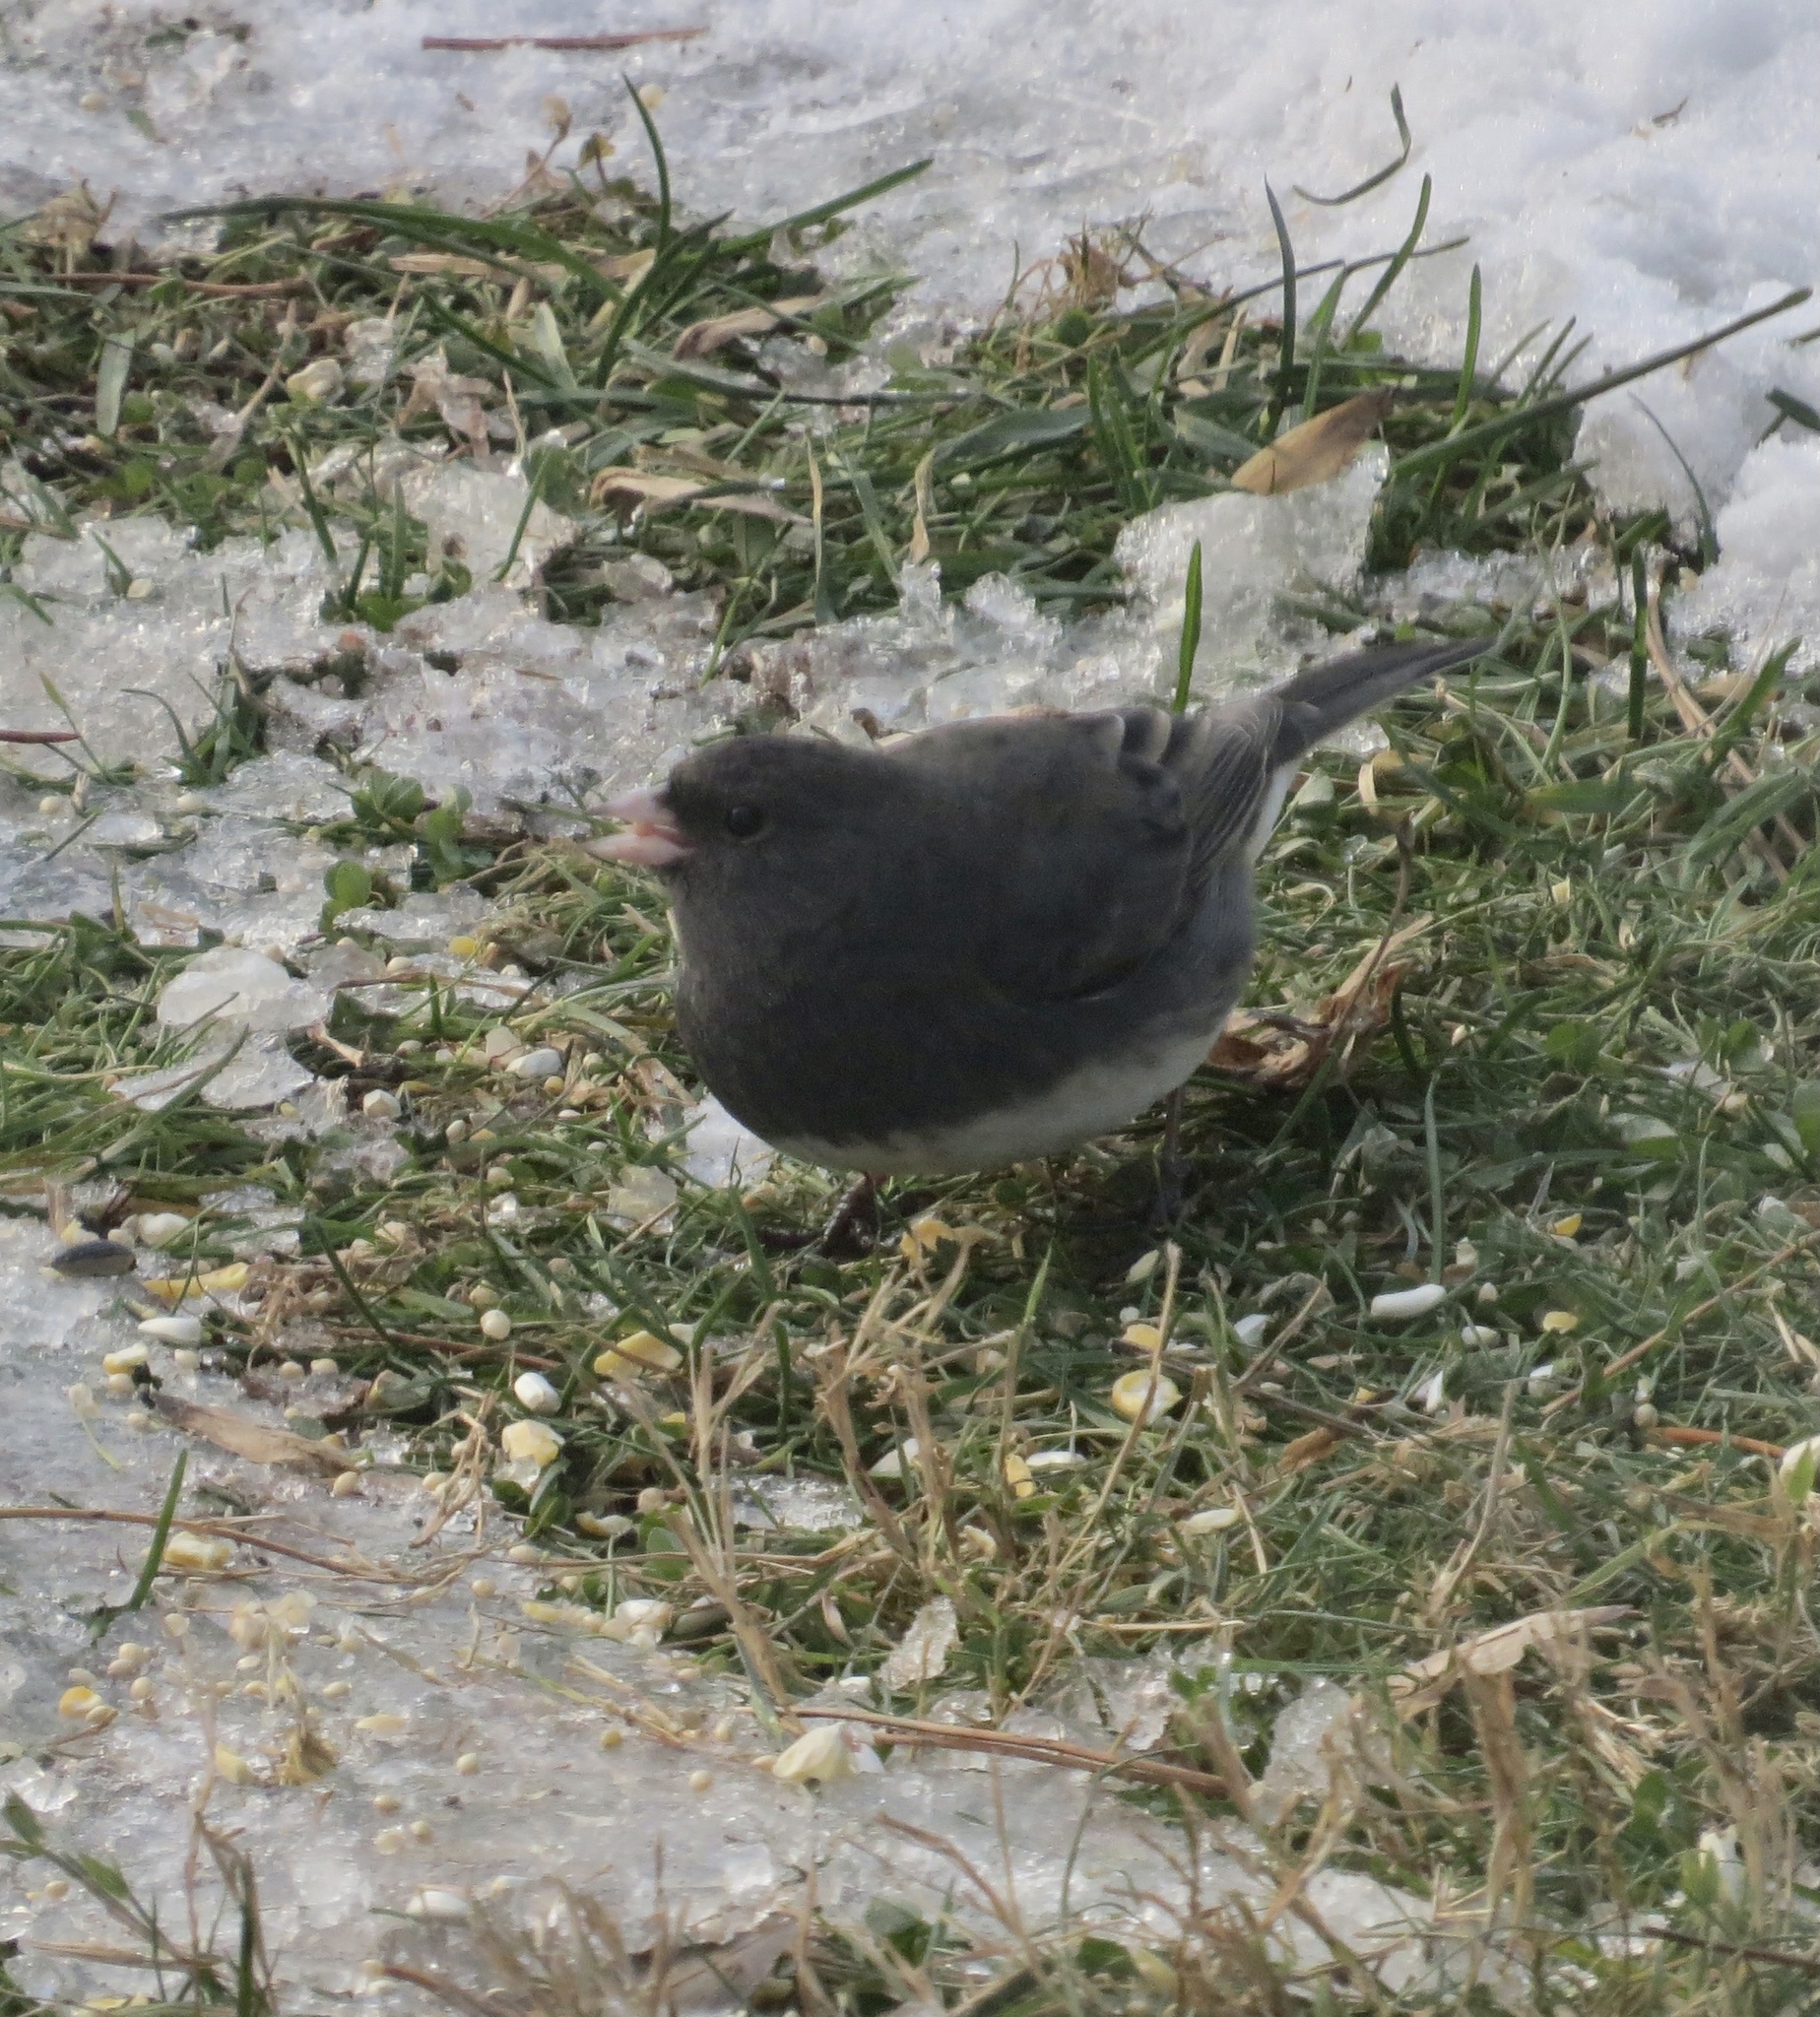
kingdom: Animalia
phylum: Chordata
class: Aves
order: Passeriformes
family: Passerellidae
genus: Junco
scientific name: Junco hyemalis
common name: Dark-eyed junco
